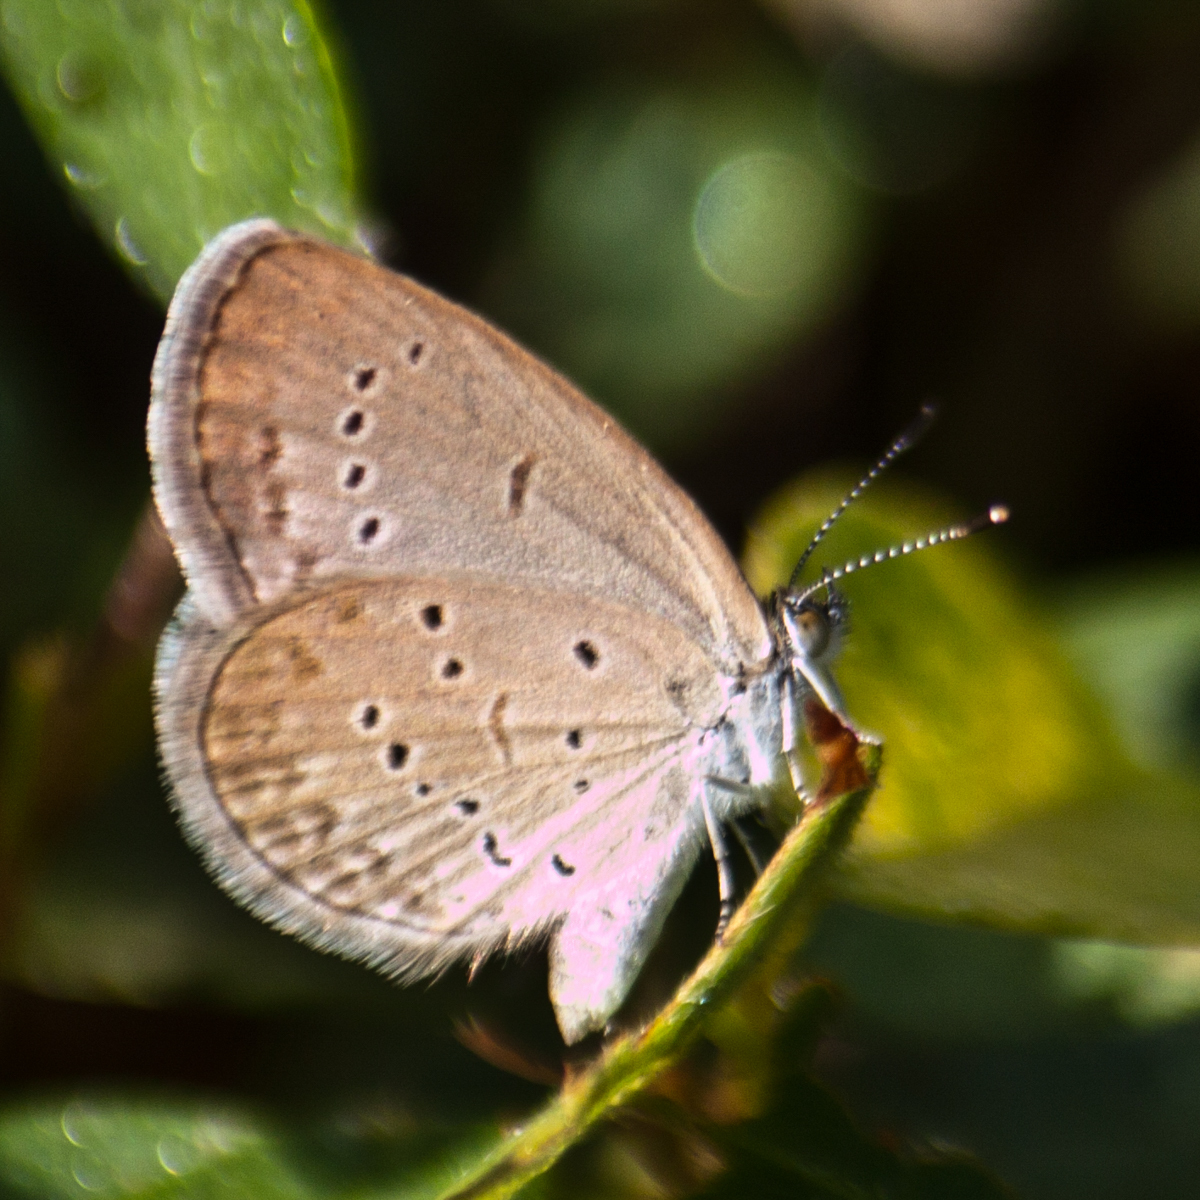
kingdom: Animalia
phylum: Arthropoda
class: Insecta
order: Lepidoptera
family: Lycaenidae
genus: Zizina
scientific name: Zizina otis
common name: Lesser grass blue
